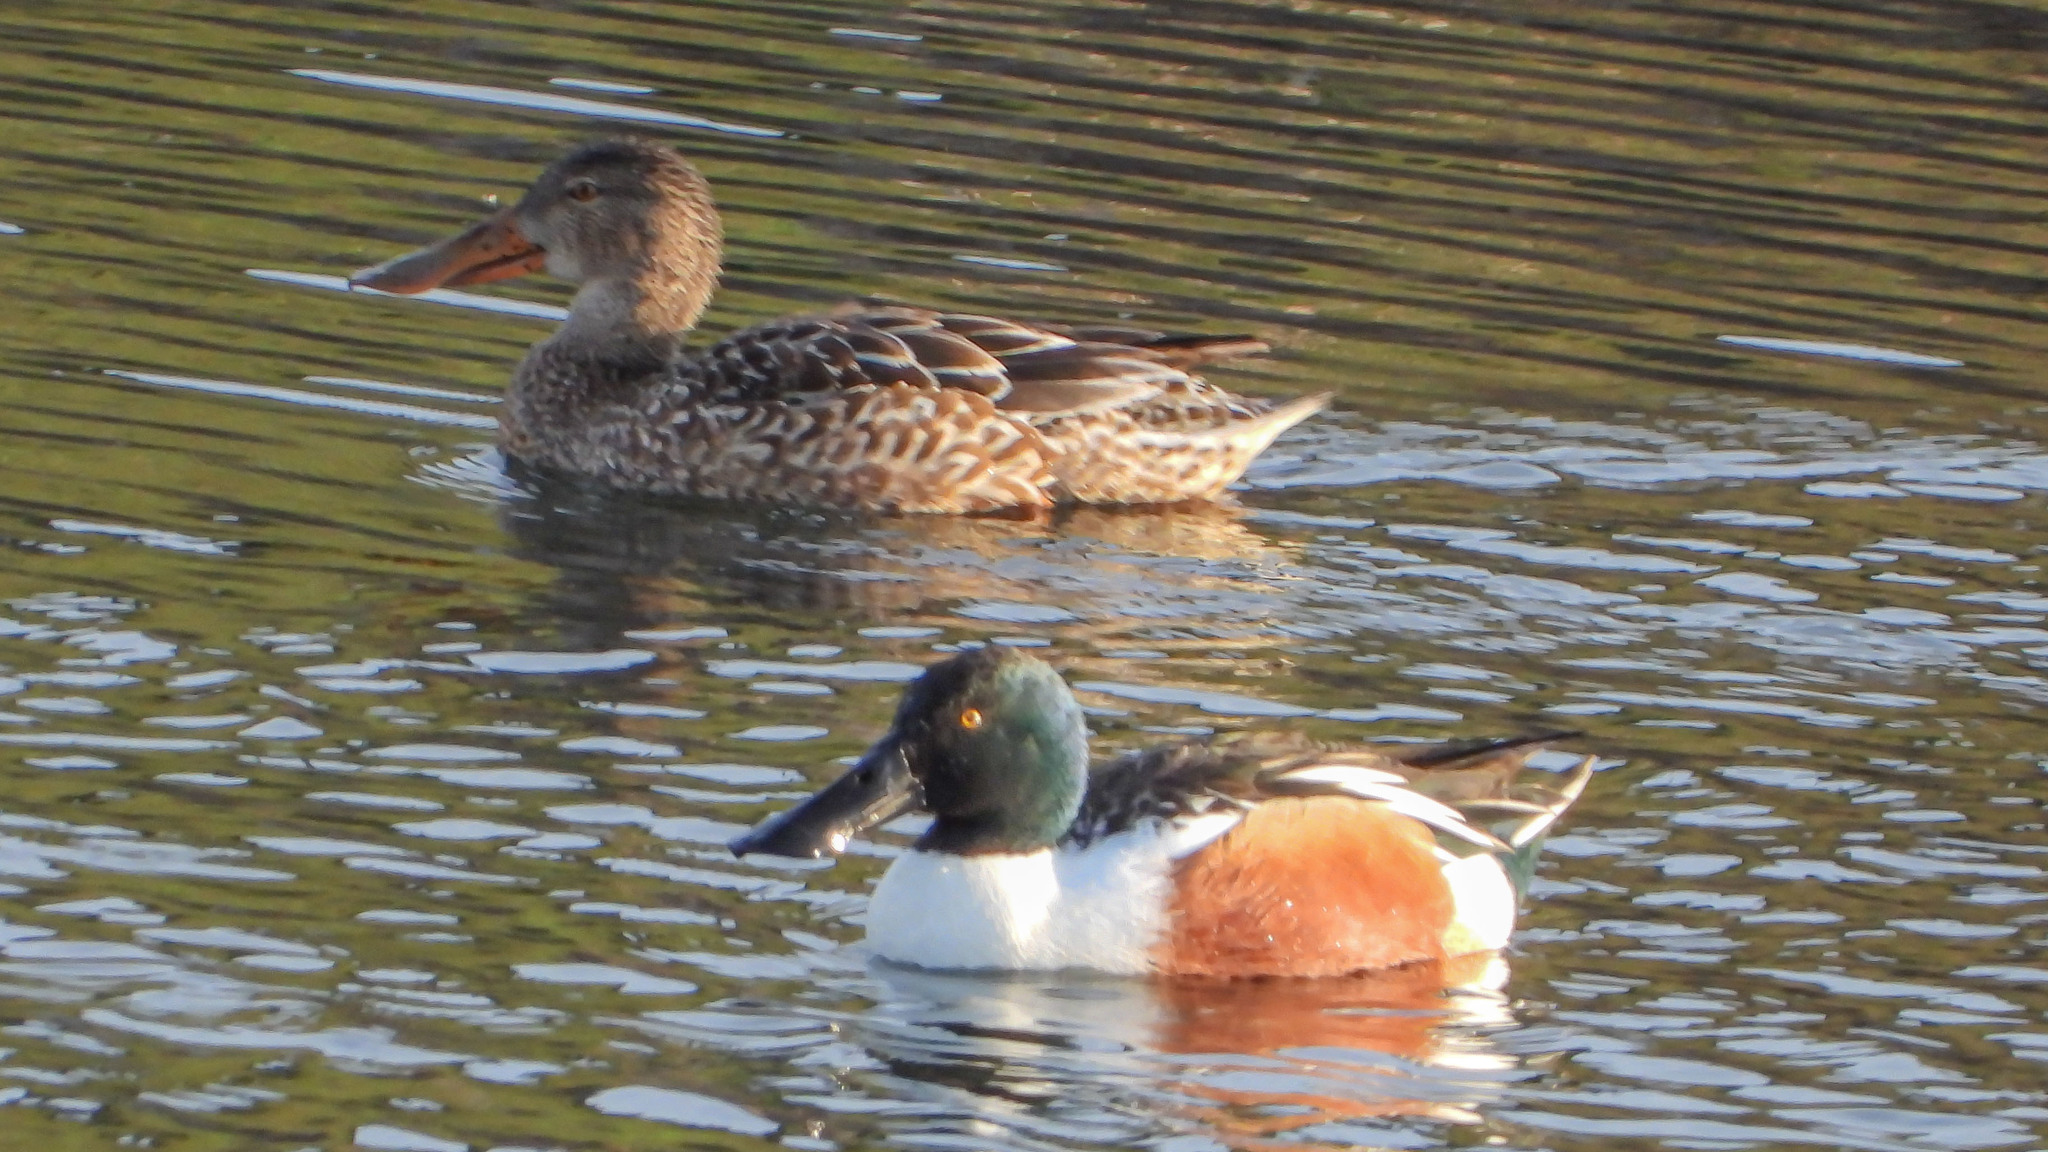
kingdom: Animalia
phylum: Chordata
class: Aves
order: Anseriformes
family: Anatidae
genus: Spatula
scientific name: Spatula clypeata
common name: Northern shoveler
